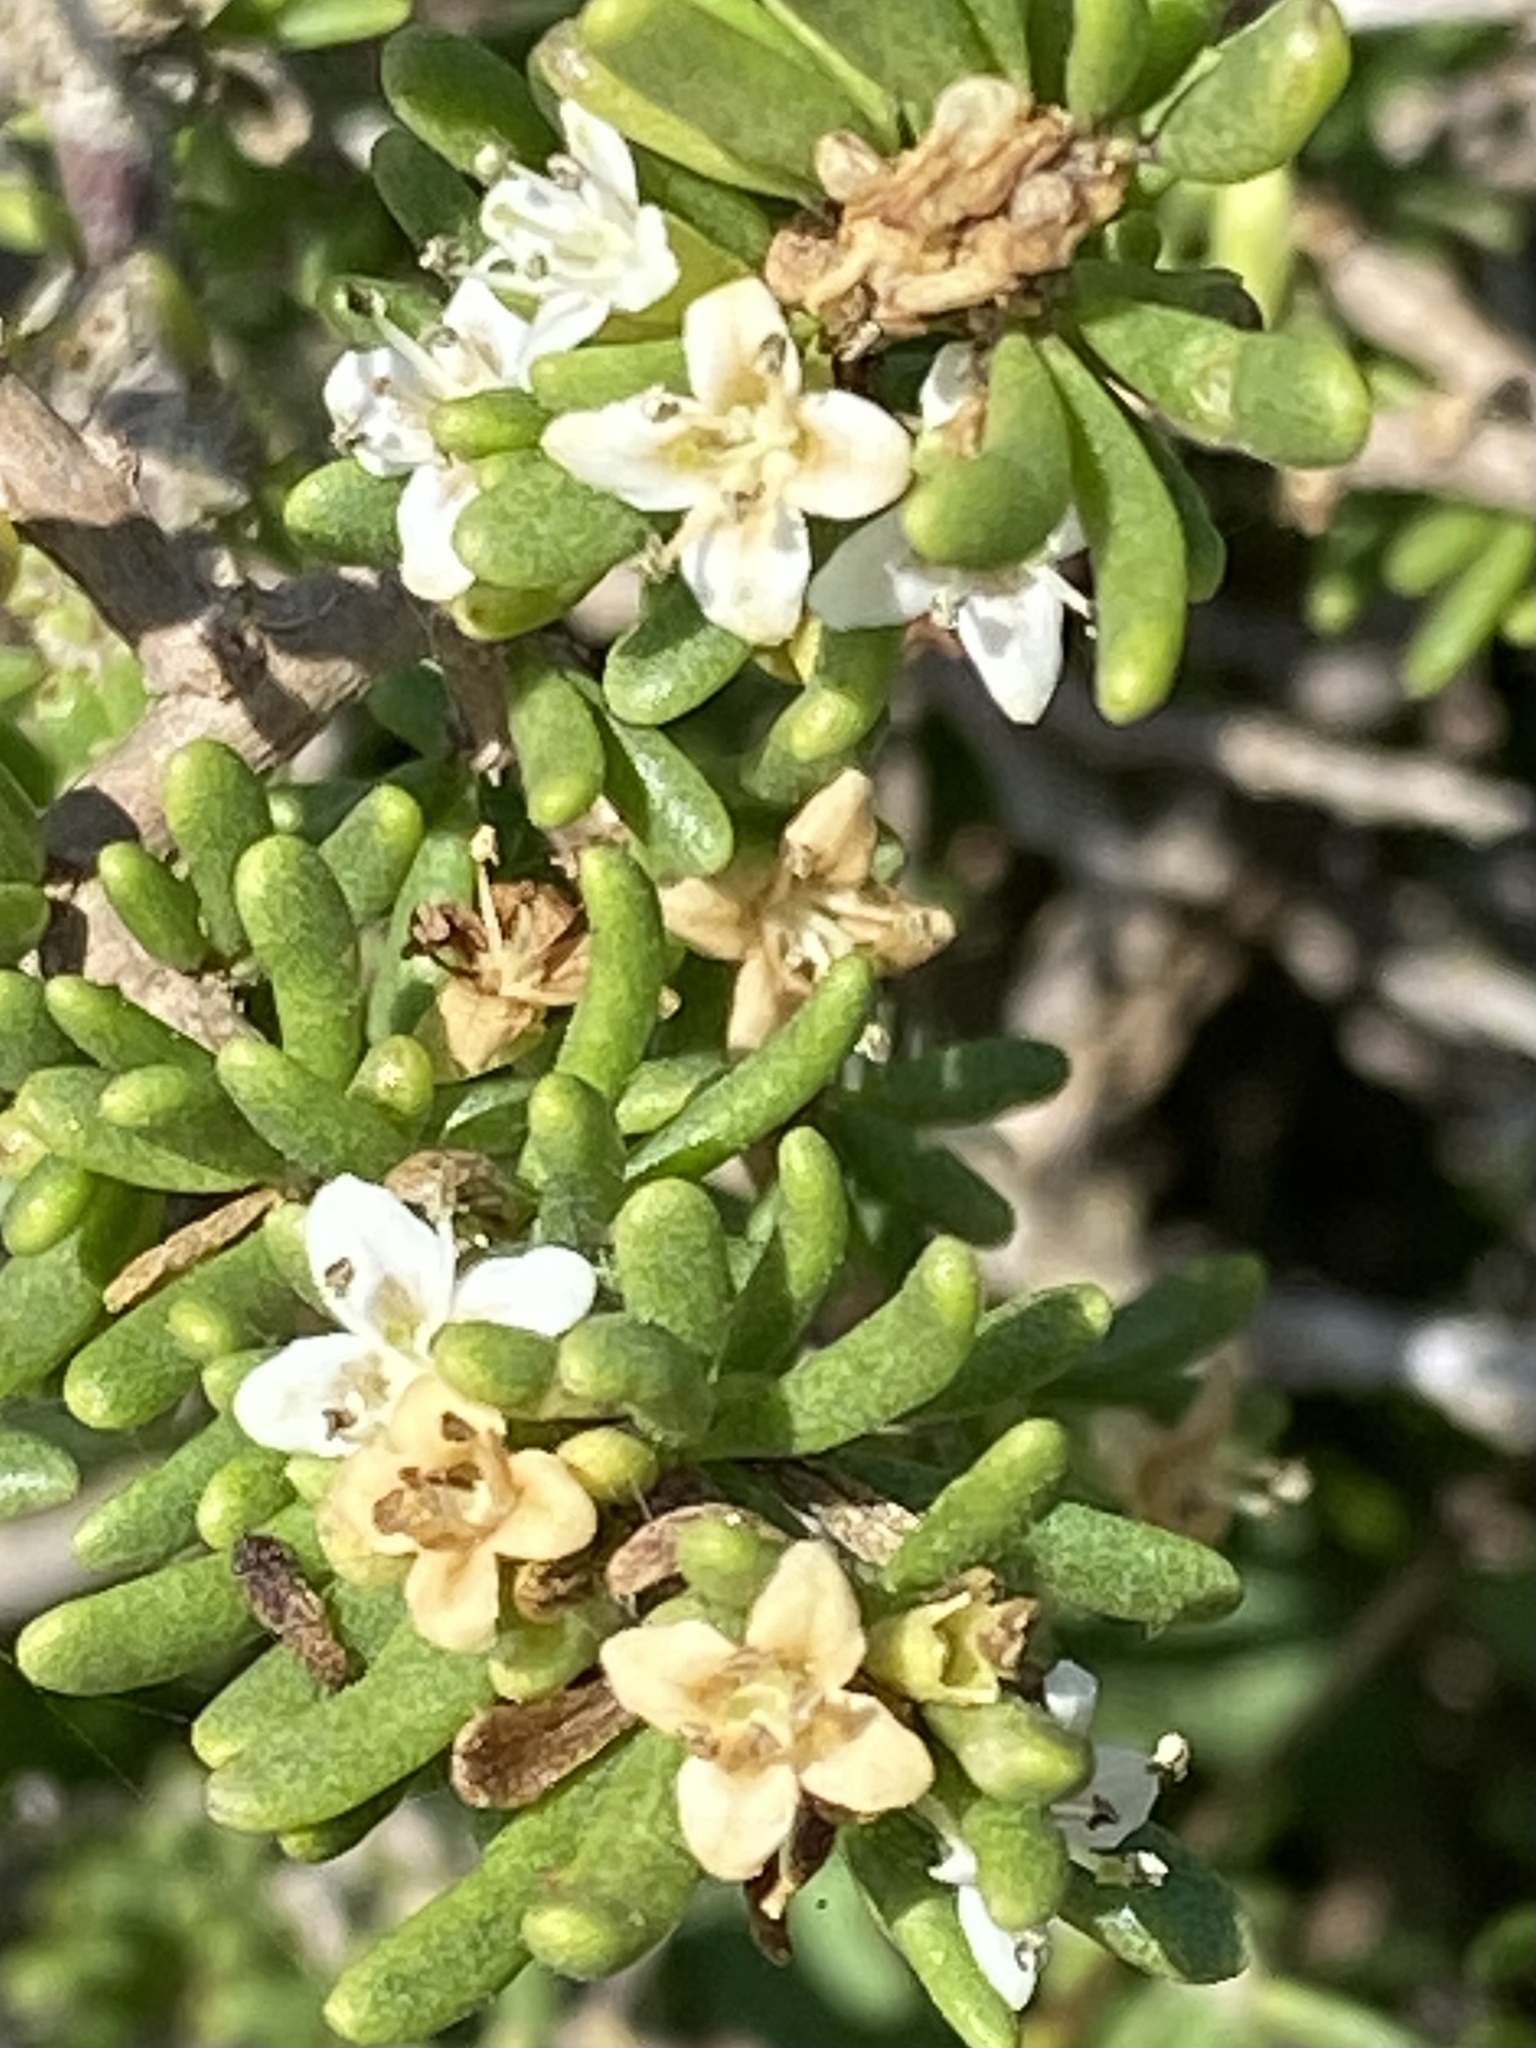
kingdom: Plantae
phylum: Tracheophyta
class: Magnoliopsida
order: Solanales
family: Solanaceae
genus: Lycium
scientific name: Lycium californicum
